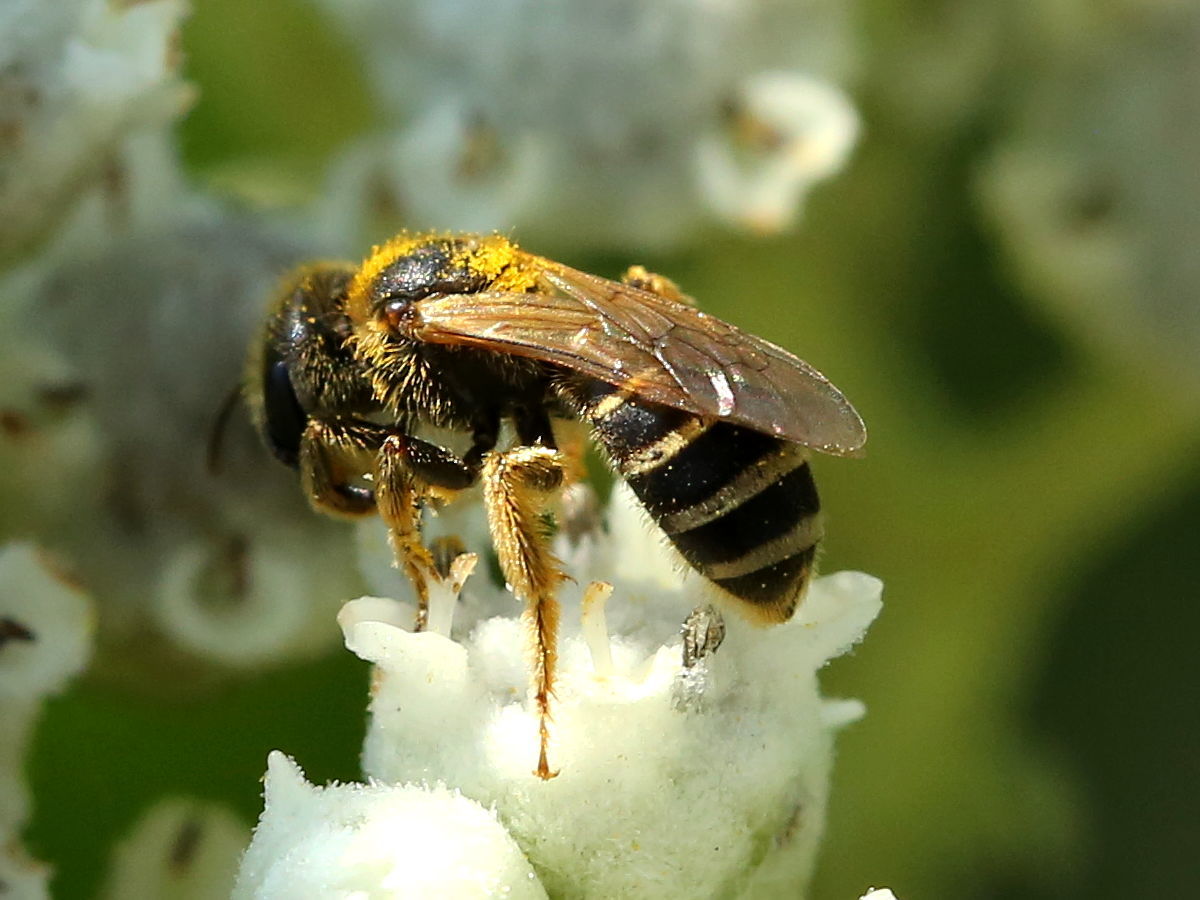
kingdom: Animalia
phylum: Arthropoda
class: Insecta
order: Hymenoptera
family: Halictidae
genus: Halictus
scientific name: Halictus ligatus
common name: Ligated furrow bee
